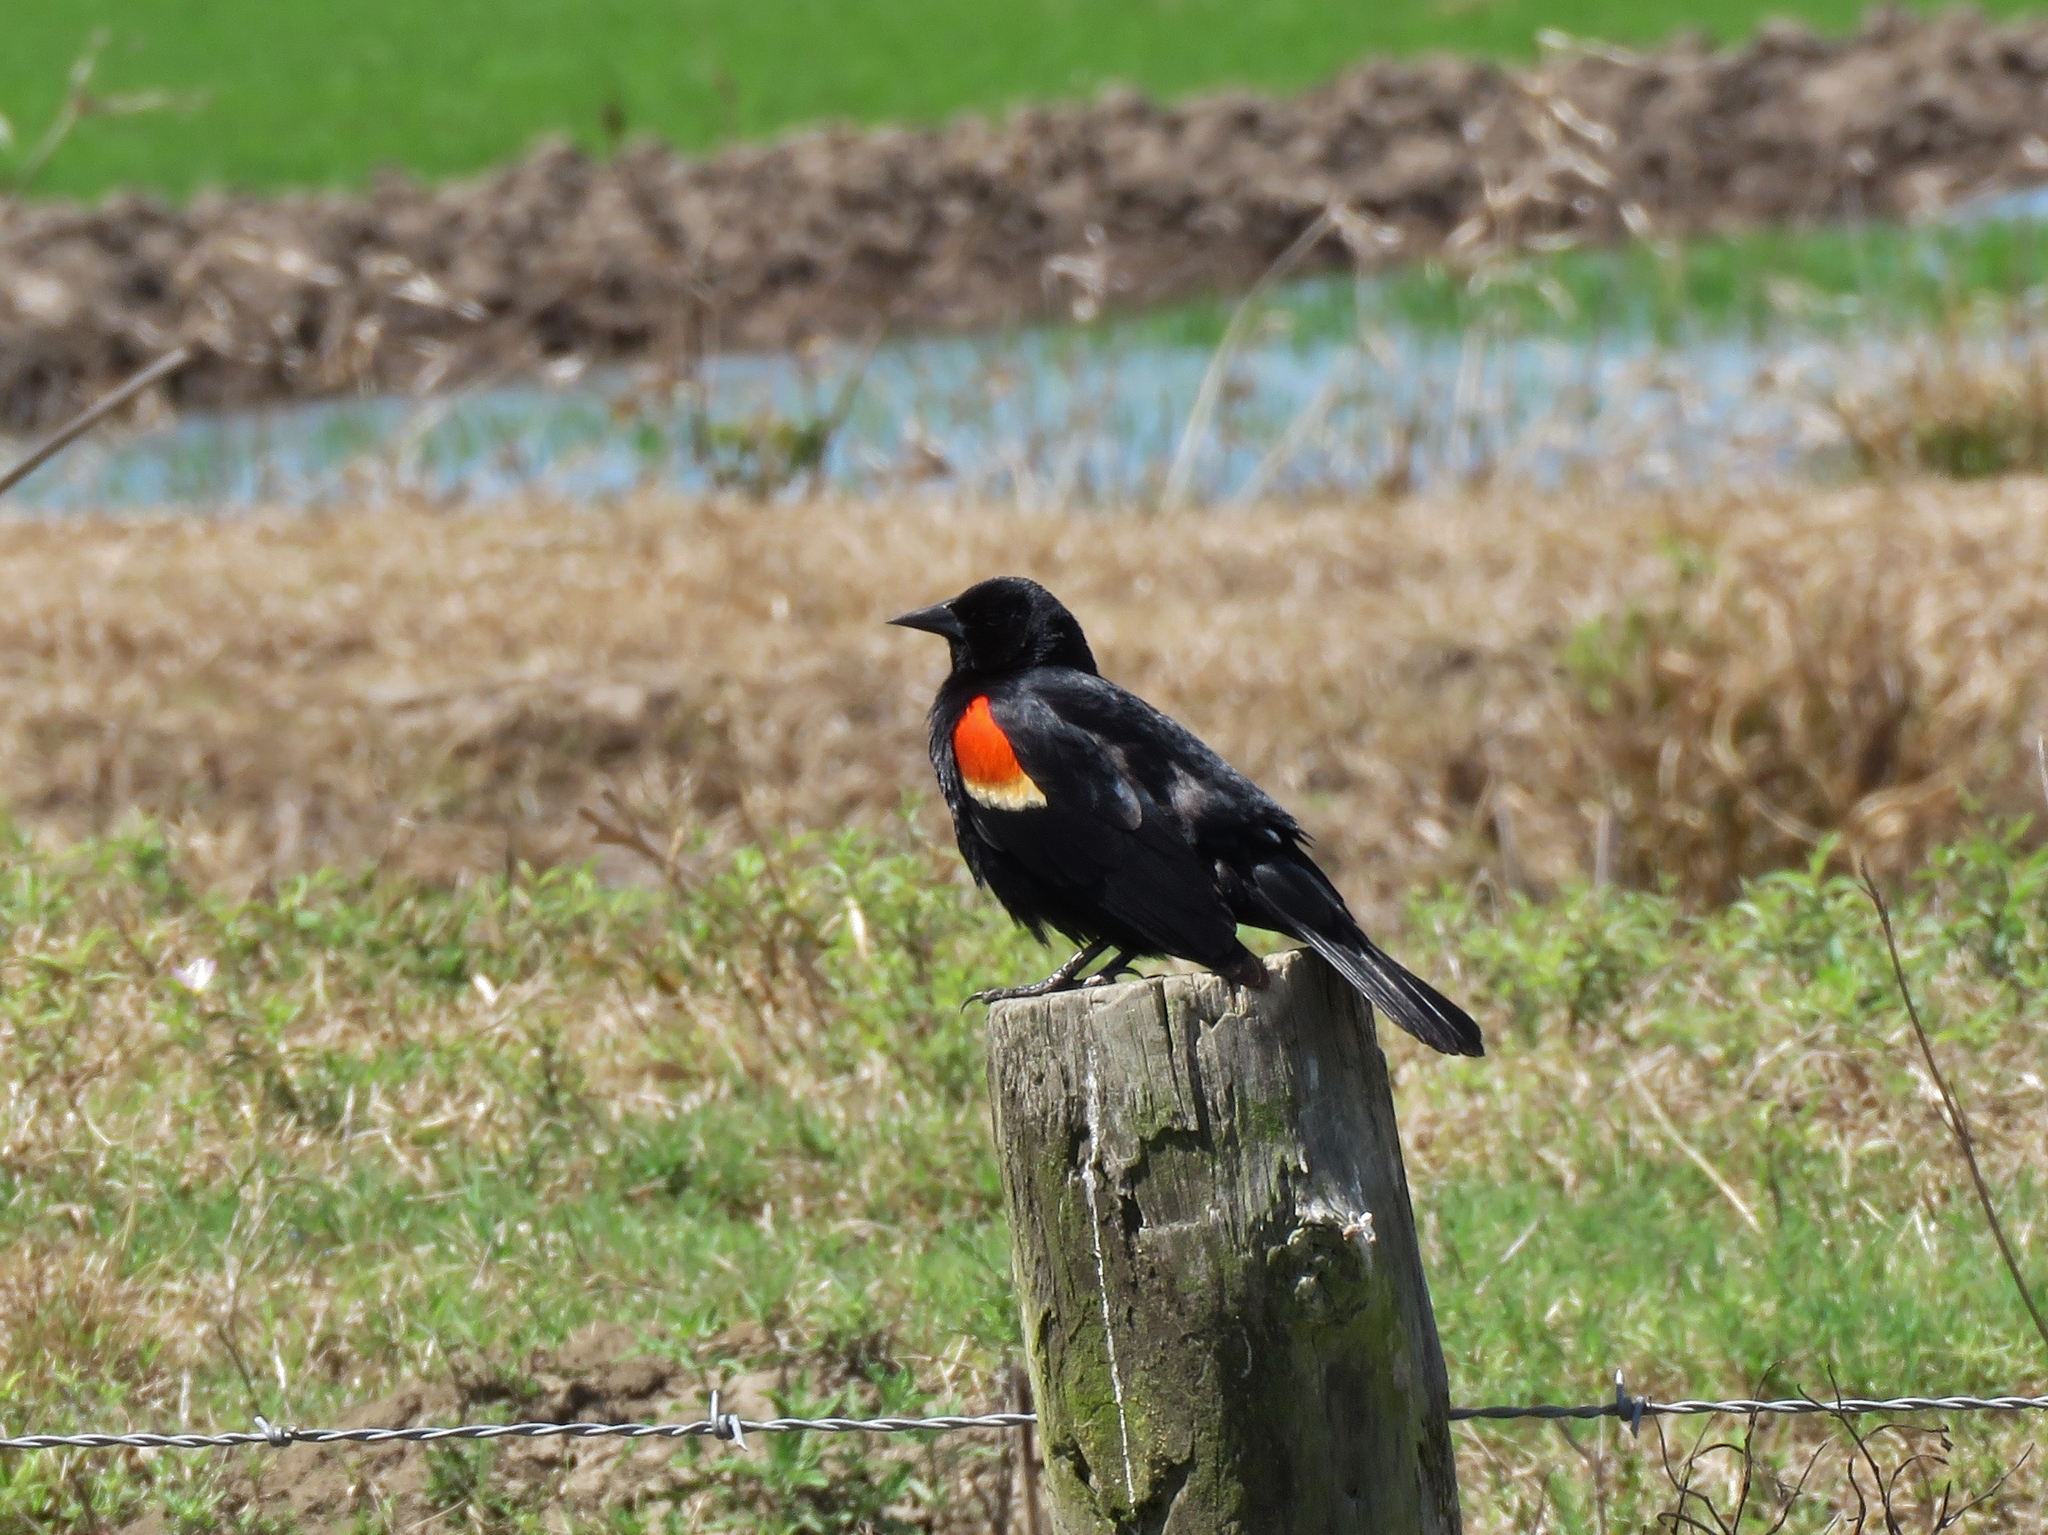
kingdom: Animalia
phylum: Chordata
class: Aves
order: Passeriformes
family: Icteridae
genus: Agelaius
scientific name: Agelaius phoeniceus
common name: Red-winged blackbird
